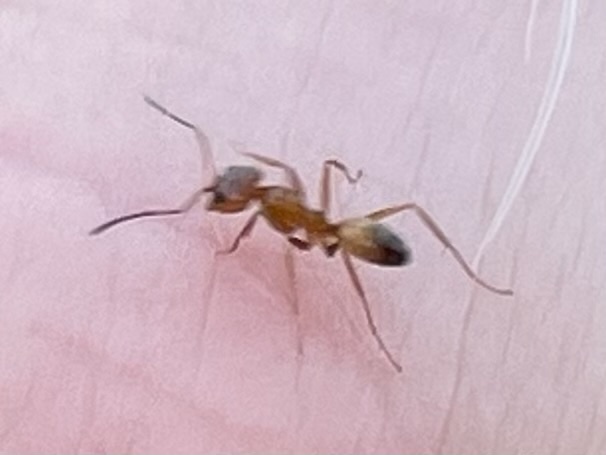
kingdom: Animalia
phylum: Arthropoda
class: Insecta
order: Hymenoptera
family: Formicidae
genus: Dorymyrmex
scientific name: Dorymyrmex flavus
